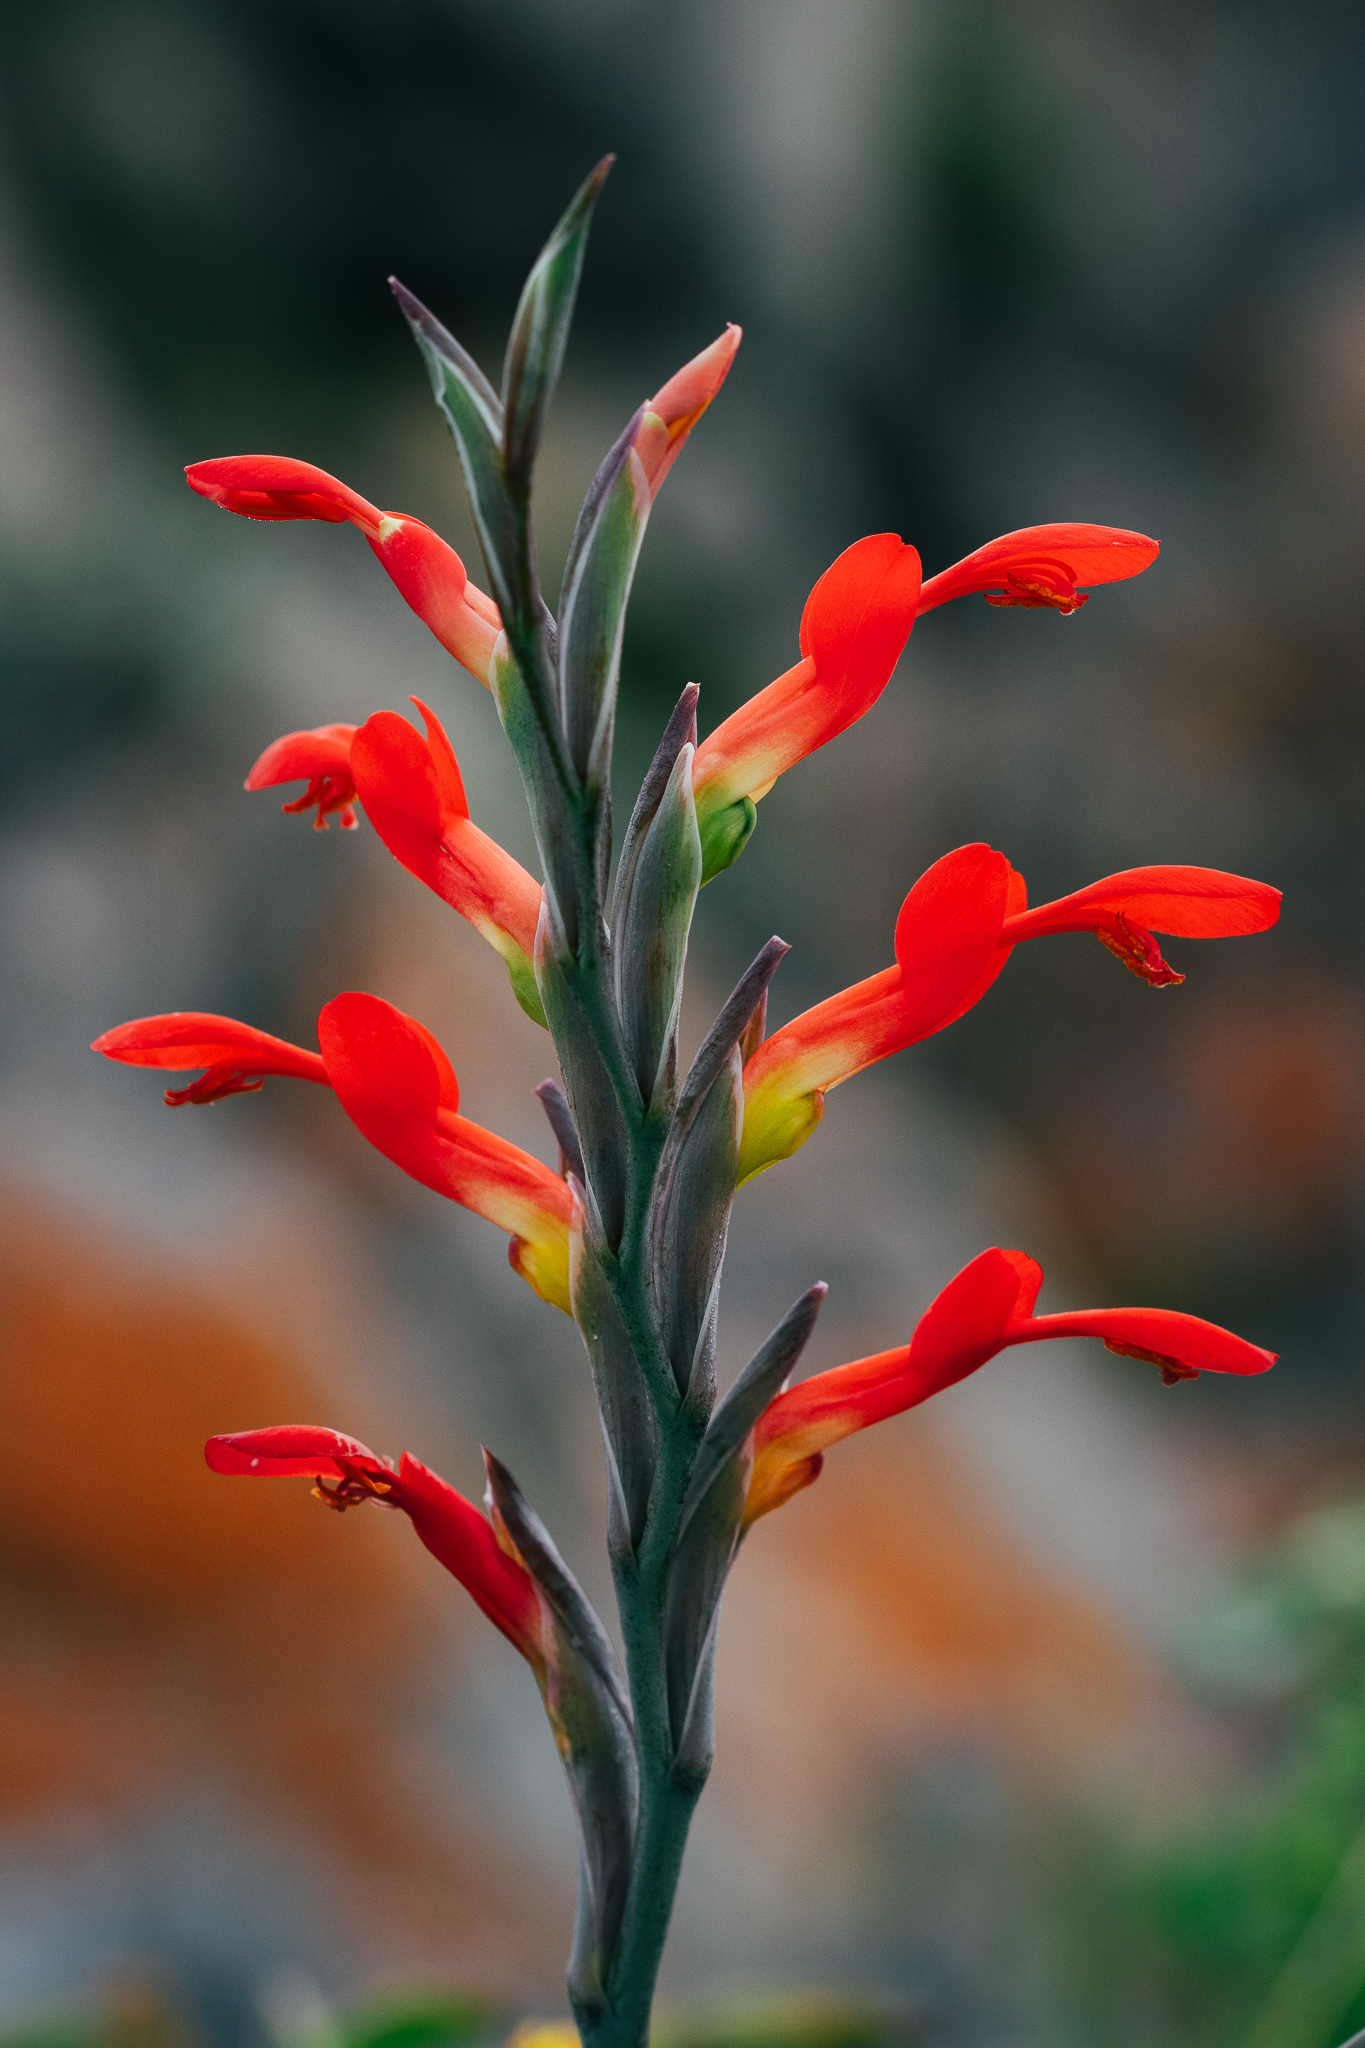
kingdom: Plantae
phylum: Tracheophyta
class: Liliopsida
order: Asparagales
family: Iridaceae
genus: Gladiolus
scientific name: Gladiolus cunonius
